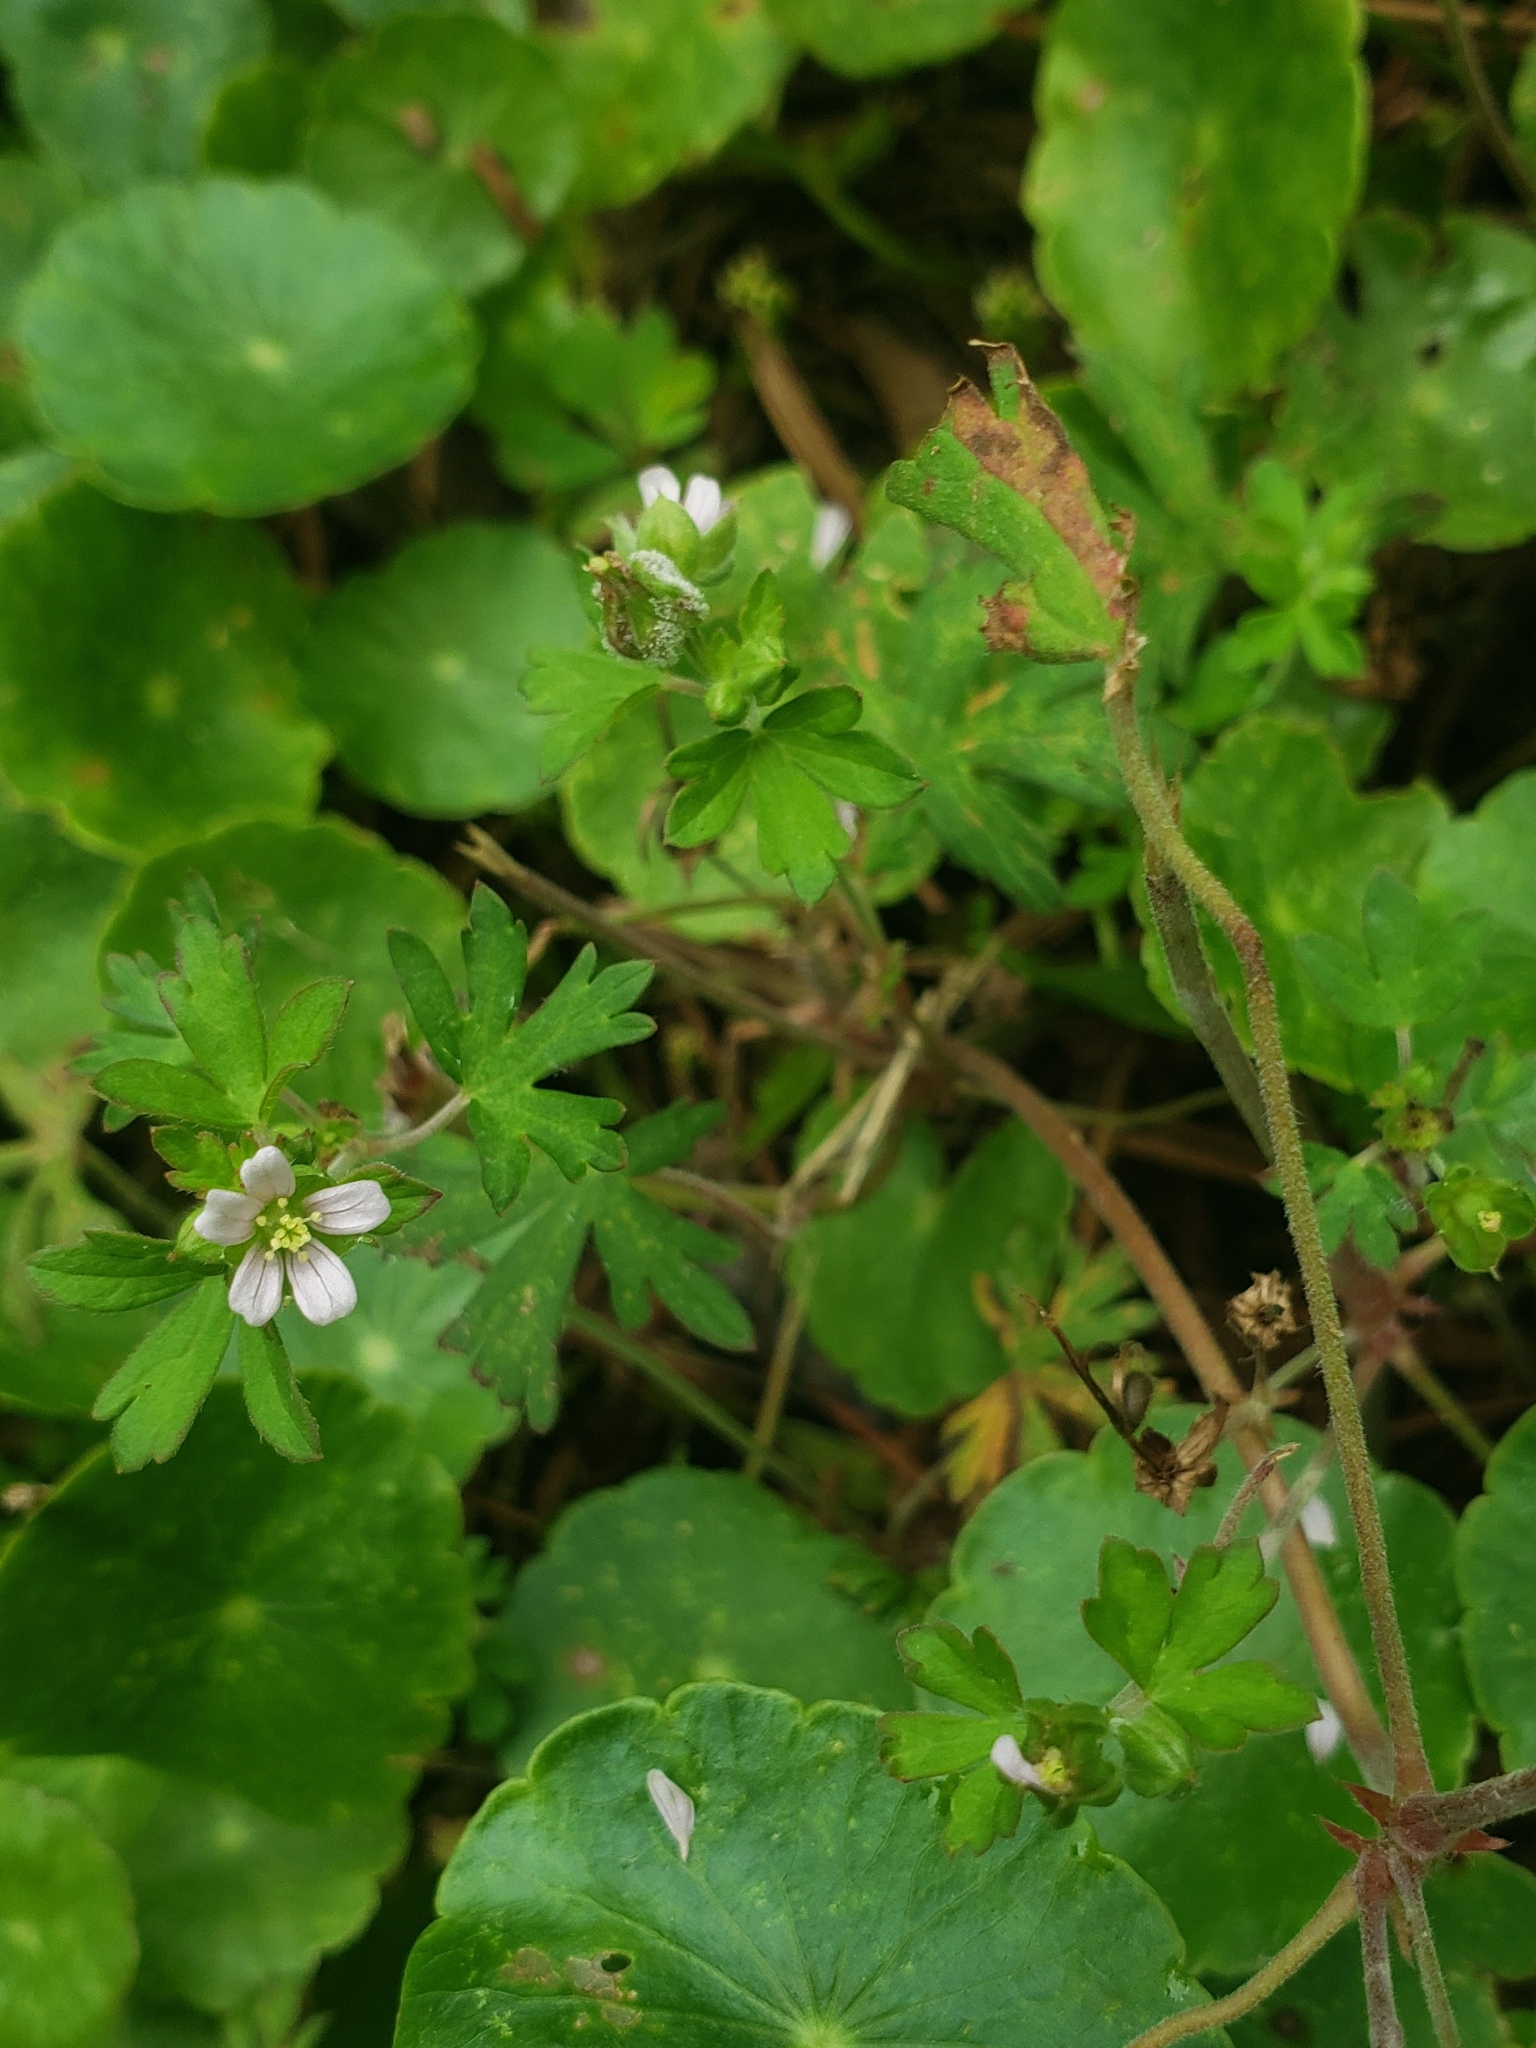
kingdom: Plantae
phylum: Tracheophyta
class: Magnoliopsida
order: Geraniales
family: Geraniaceae
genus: Geranium
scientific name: Geranium carolinianum
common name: Carolina crane's-bill
